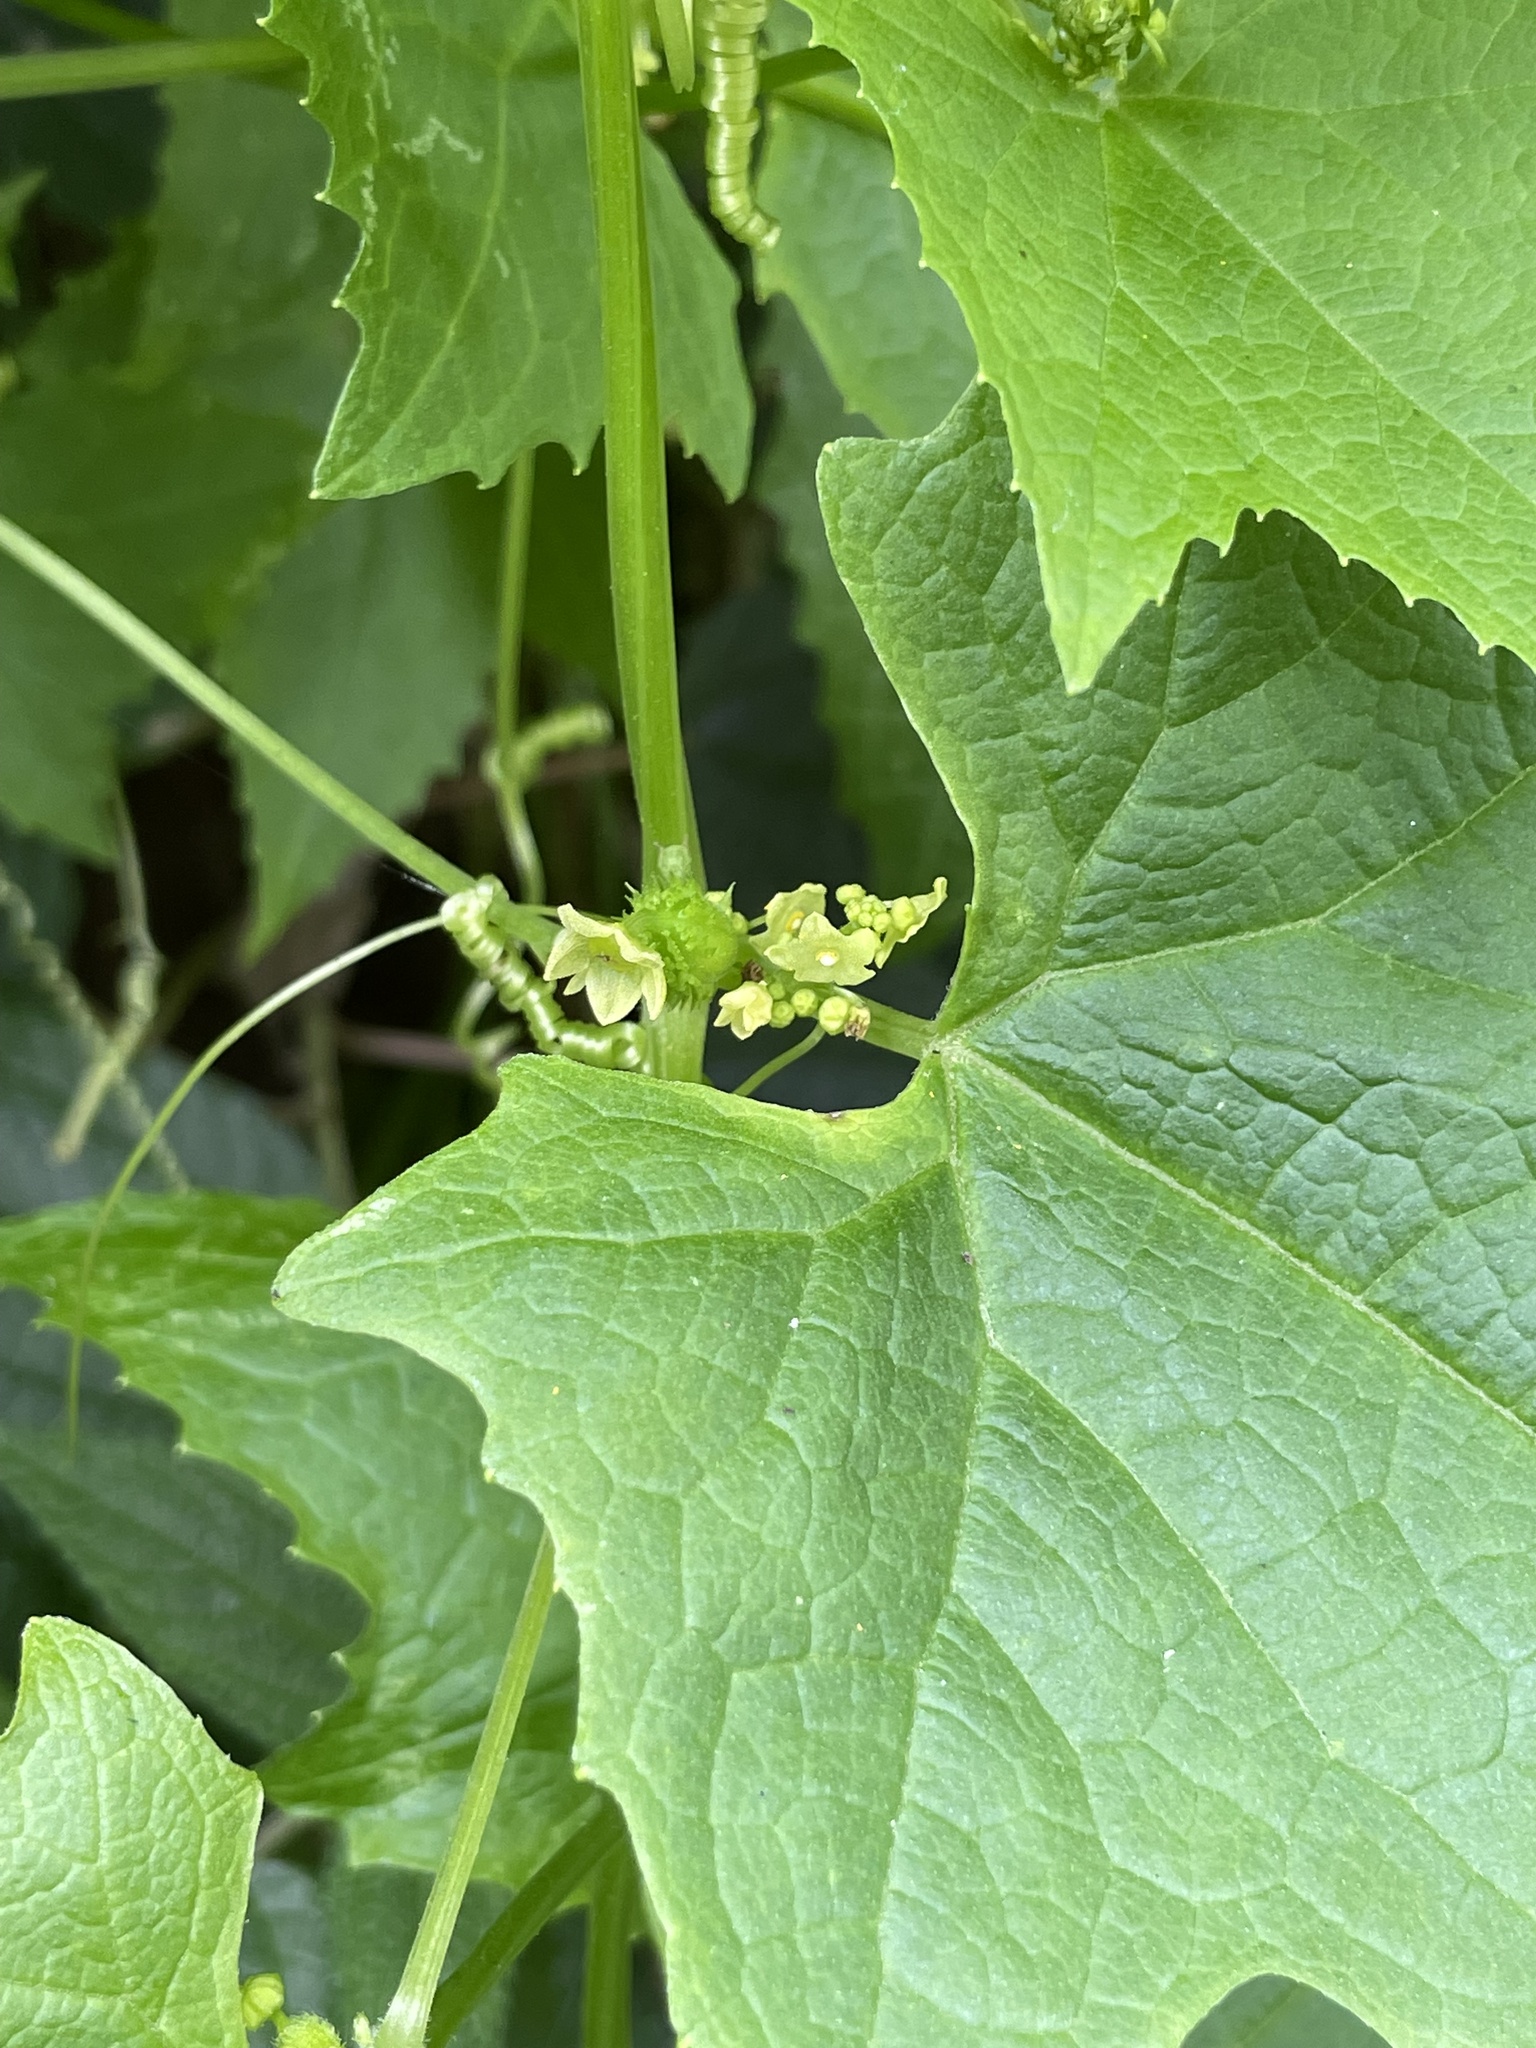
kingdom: Plantae
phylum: Tracheophyta
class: Magnoliopsida
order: Cucurbitales
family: Cucurbitaceae
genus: Cyclanthera
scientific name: Cyclanthera pedata
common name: Slipper goard
